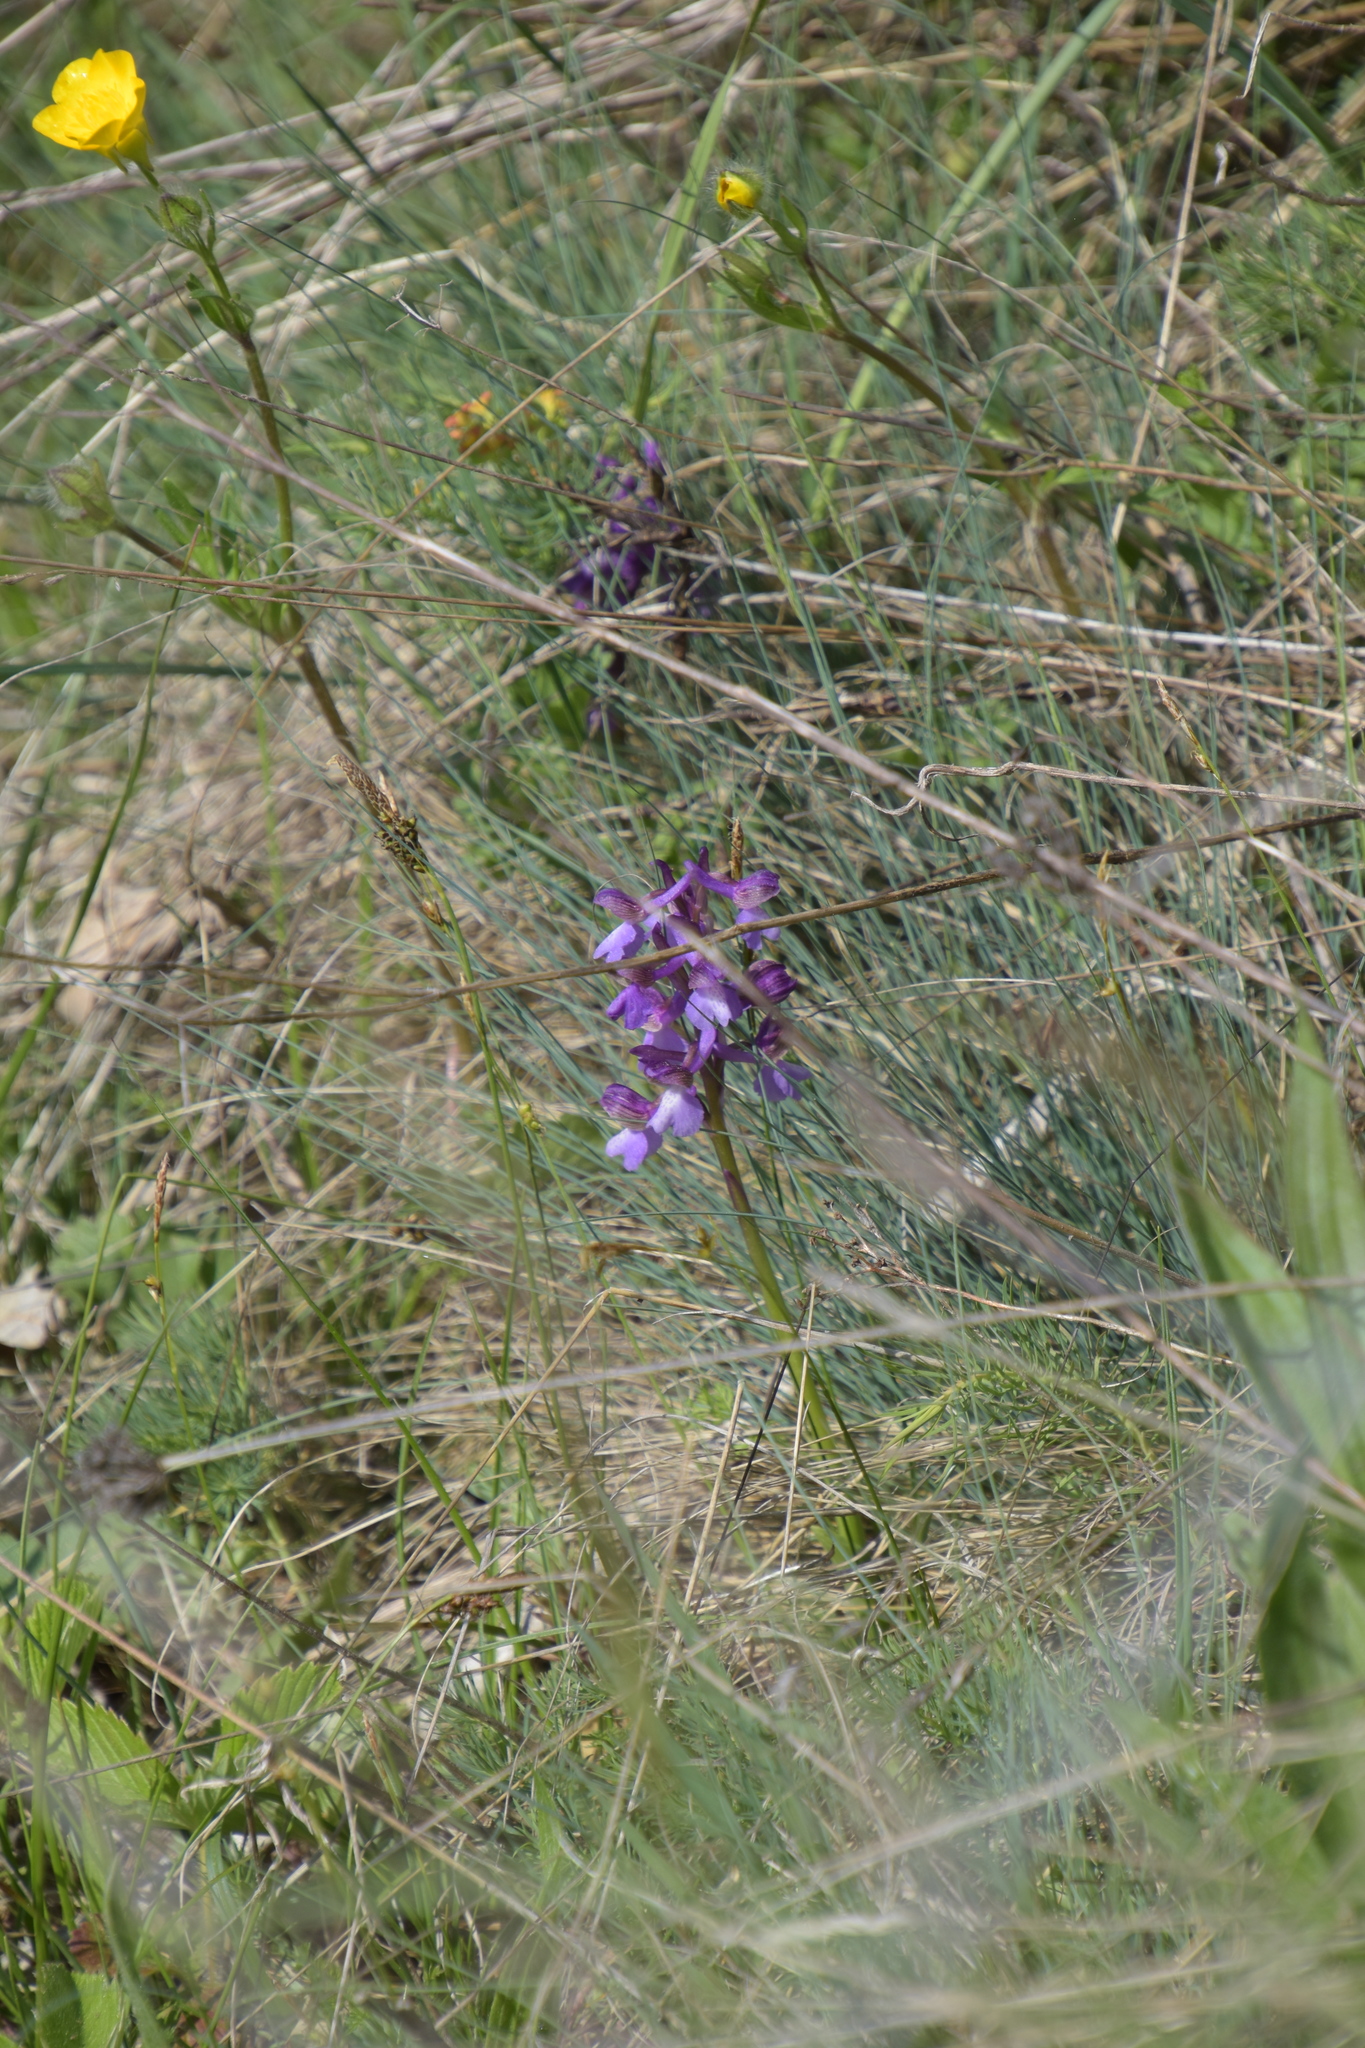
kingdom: Plantae
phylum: Tracheophyta
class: Liliopsida
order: Asparagales
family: Orchidaceae
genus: Anacamptis
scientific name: Anacamptis morio
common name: Green-winged orchid
